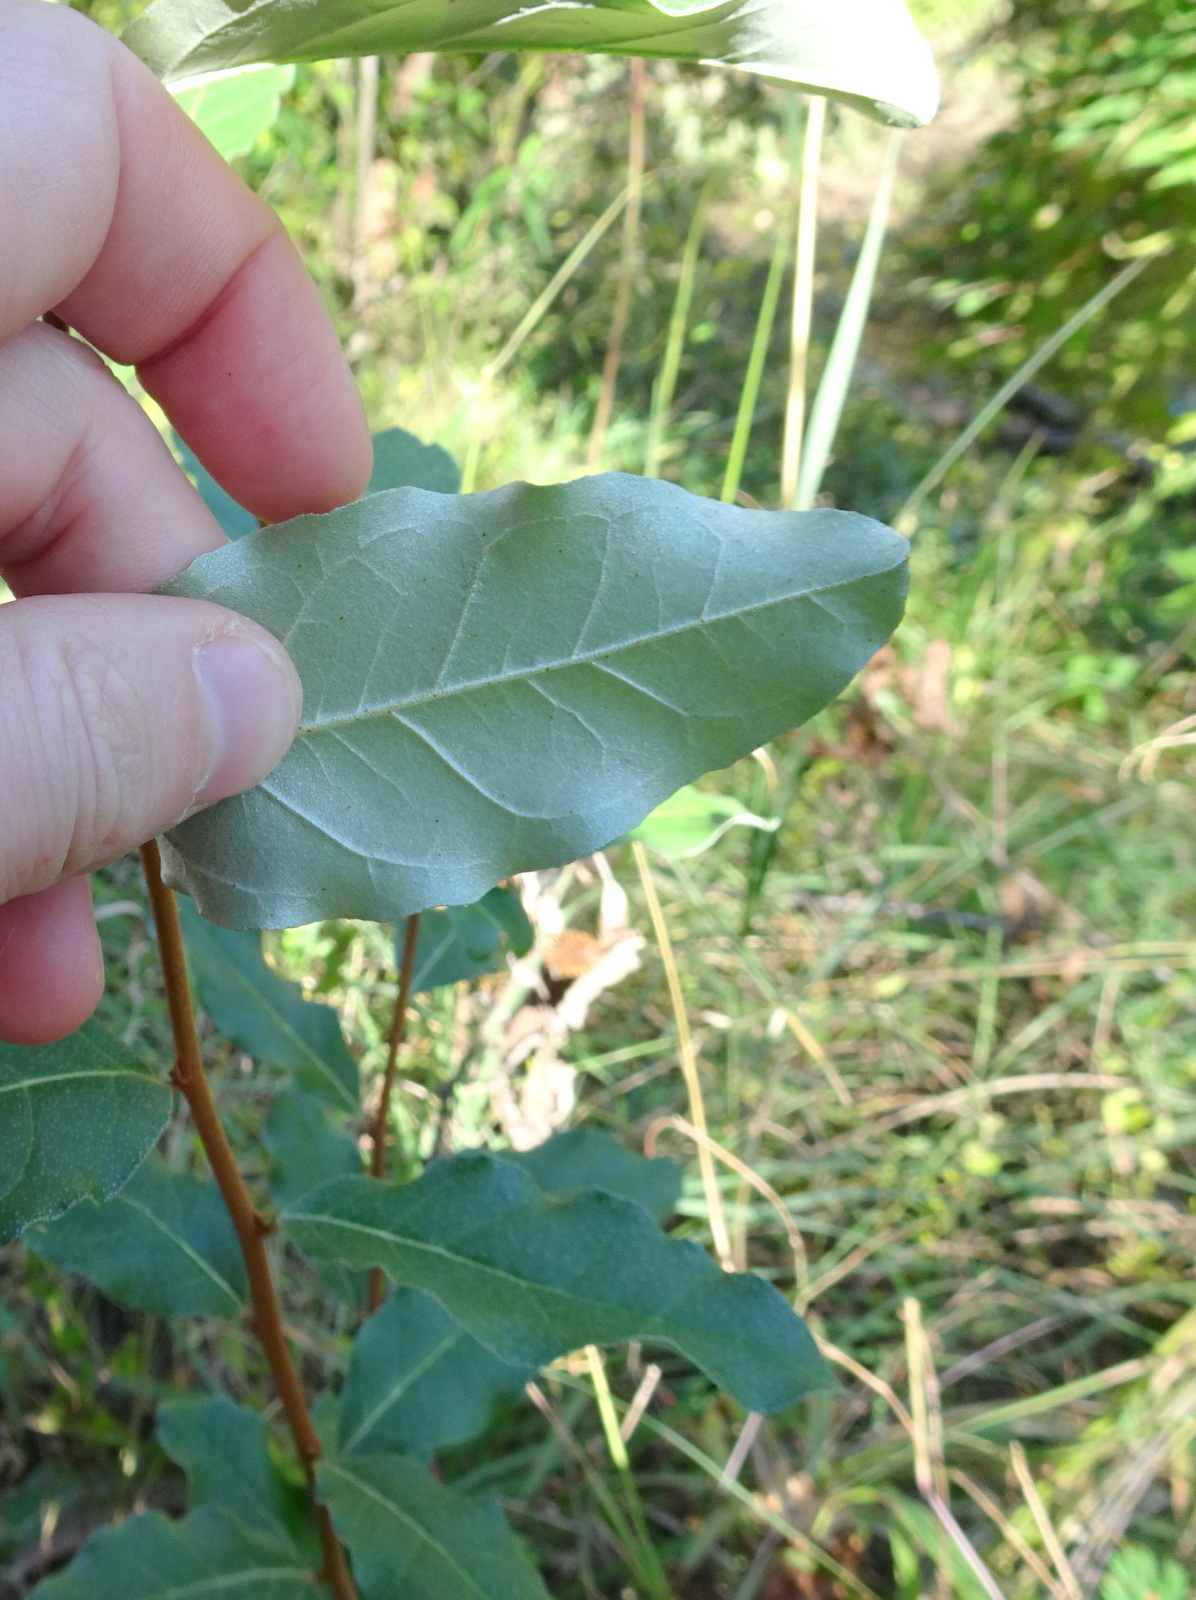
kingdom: Plantae
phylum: Tracheophyta
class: Magnoliopsida
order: Rosales
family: Elaeagnaceae
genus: Elaeagnus
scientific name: Elaeagnus umbellata
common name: Autumn olive
